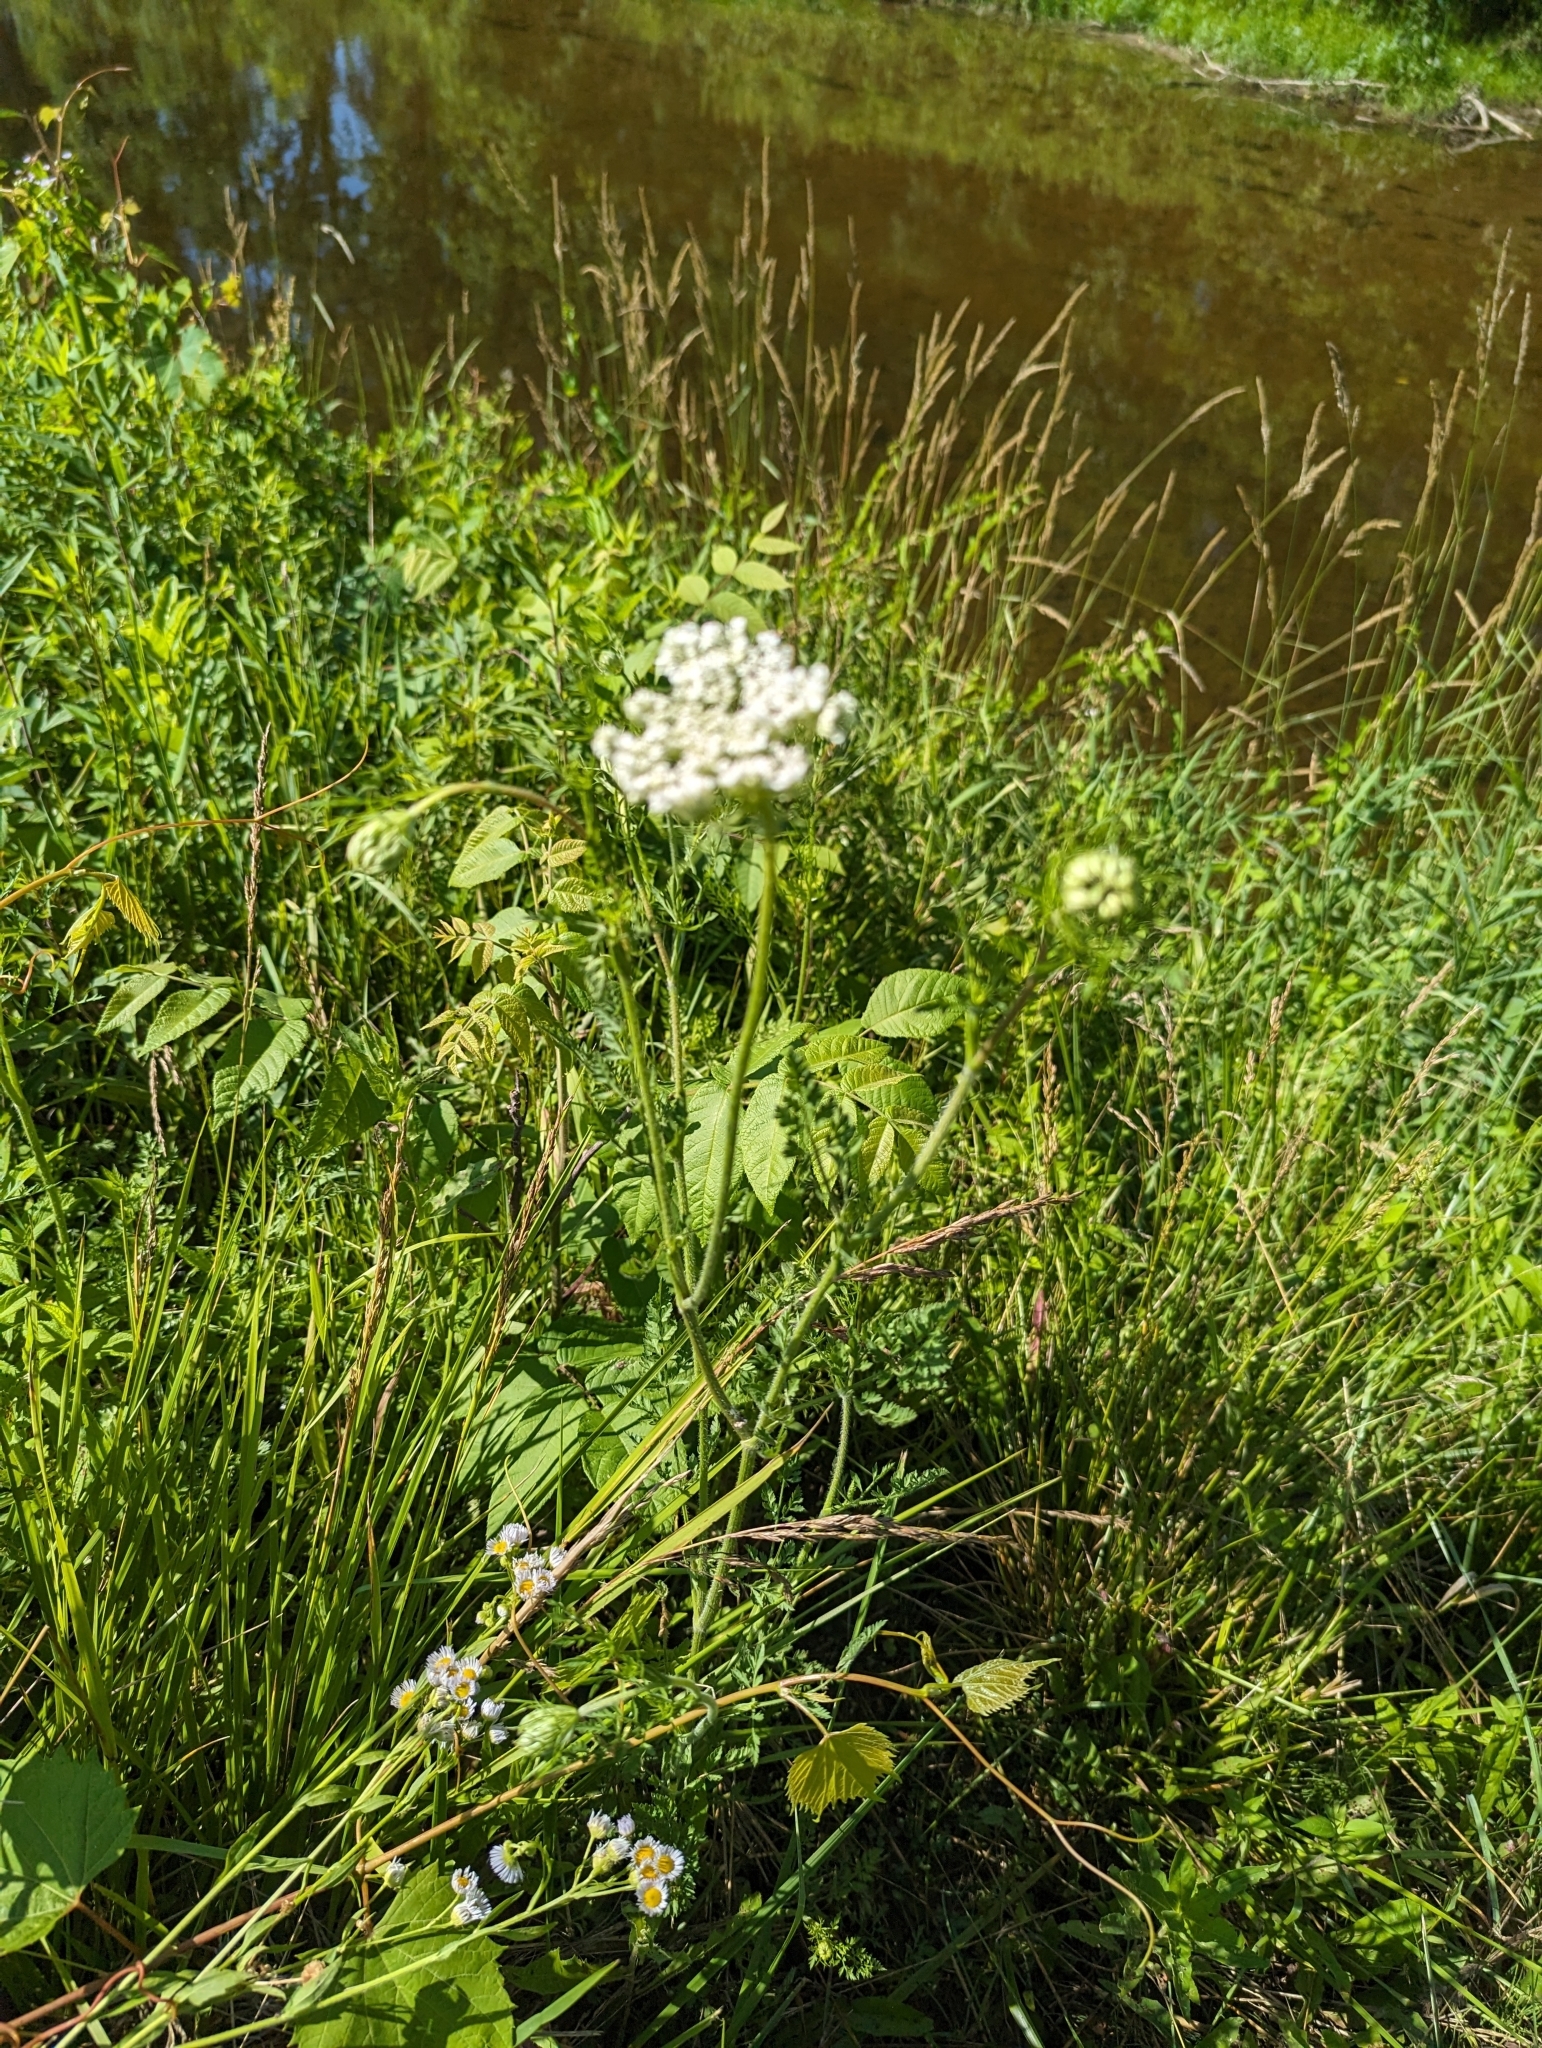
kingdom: Plantae
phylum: Tracheophyta
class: Magnoliopsida
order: Apiales
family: Apiaceae
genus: Daucus
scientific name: Daucus carota
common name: Wild carrot
